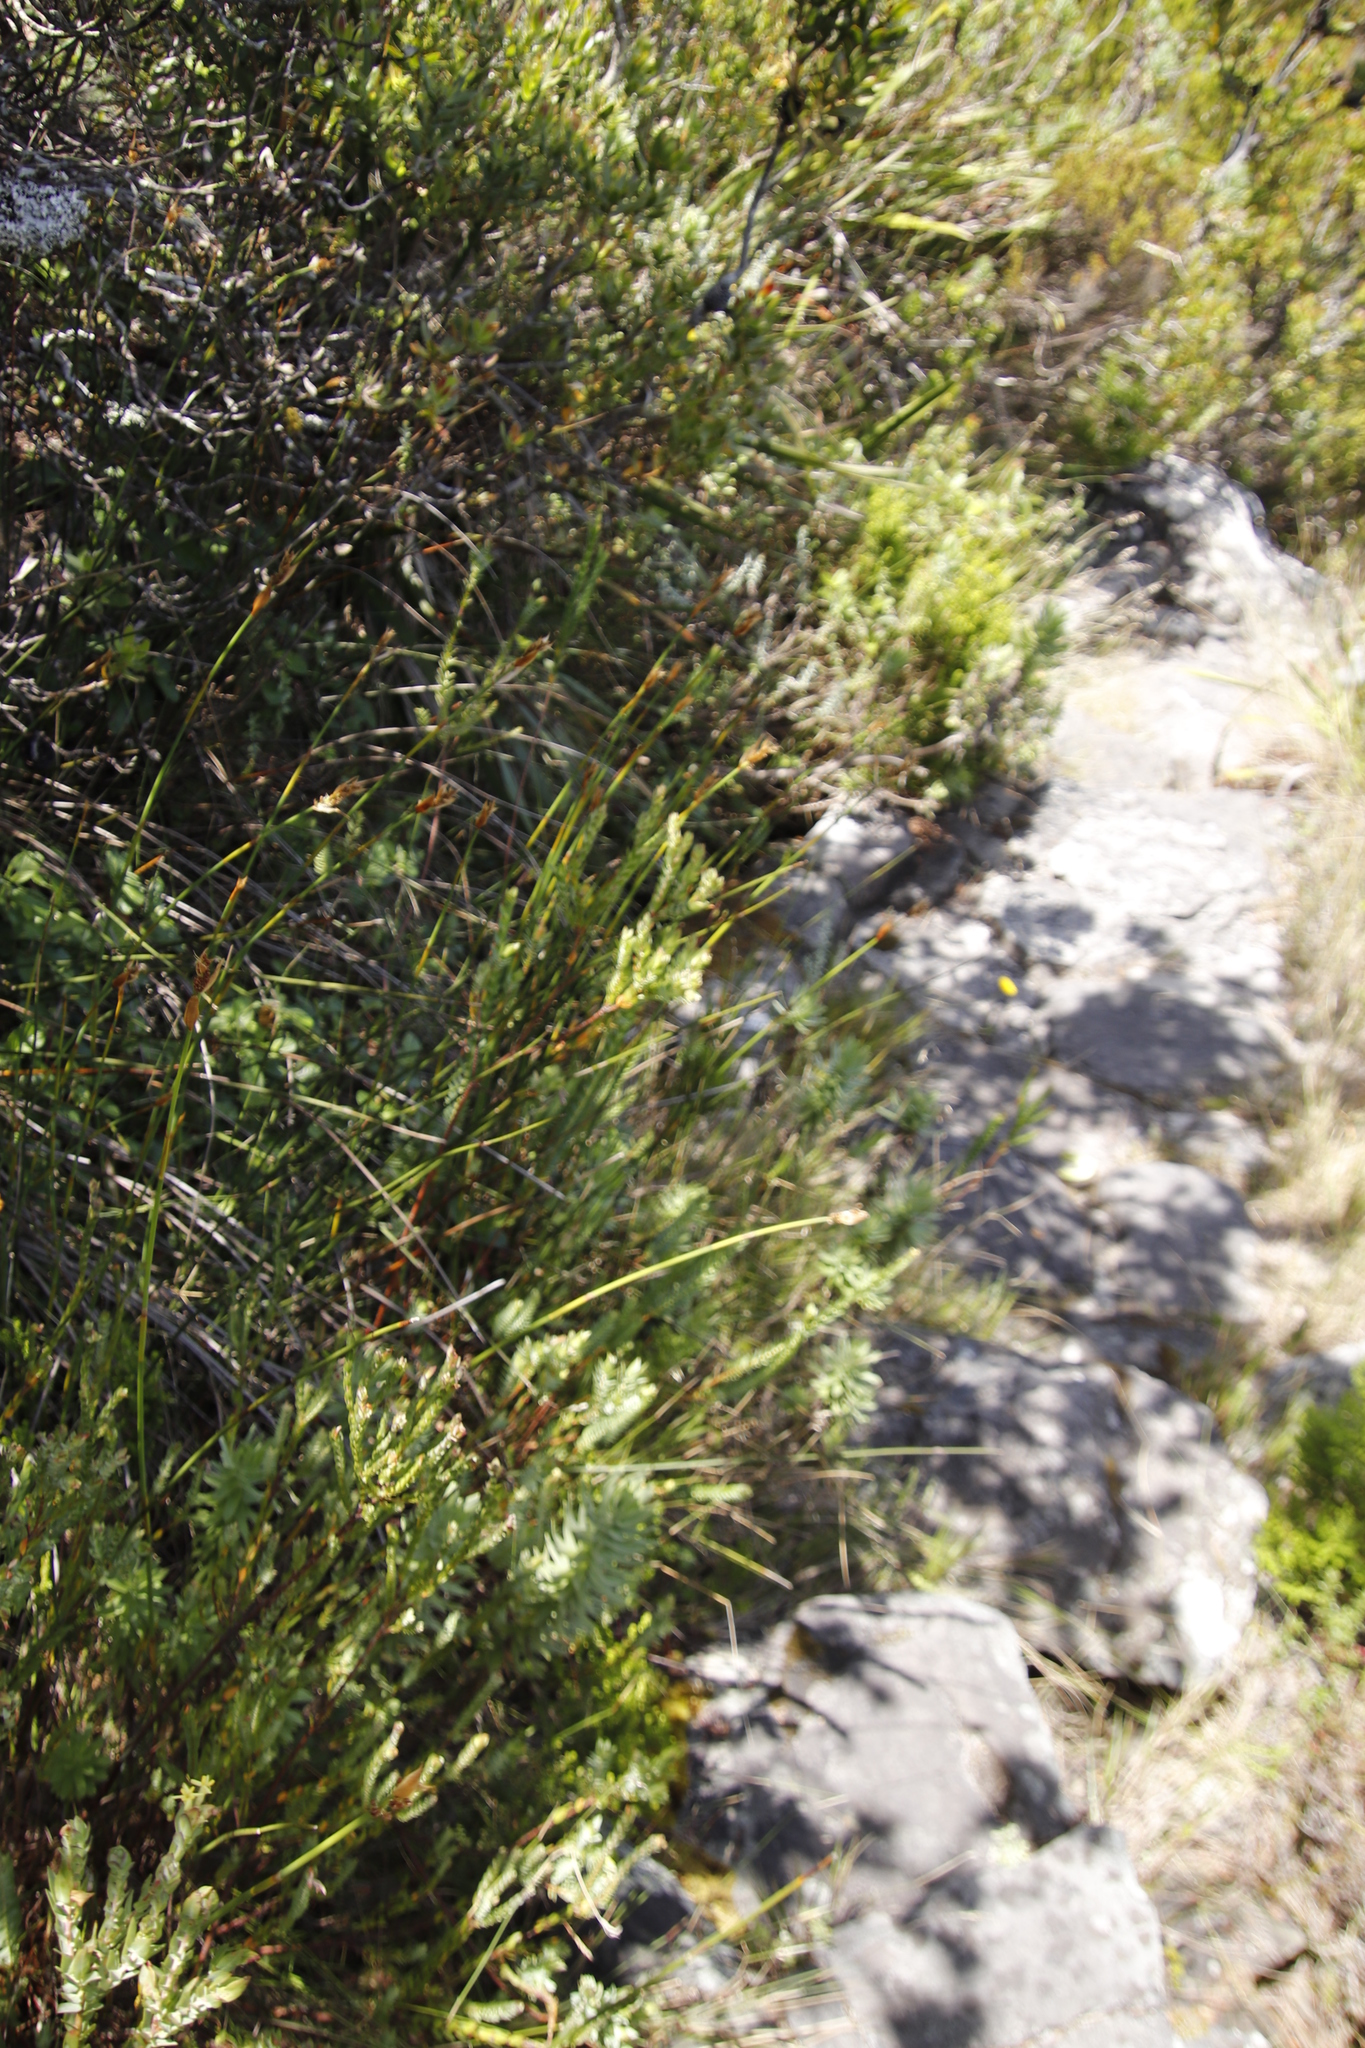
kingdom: Plantae
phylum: Tracheophyta
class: Magnoliopsida
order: Malvales
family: Thymelaeaceae
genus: Gnidia
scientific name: Gnidia oppositifolia
